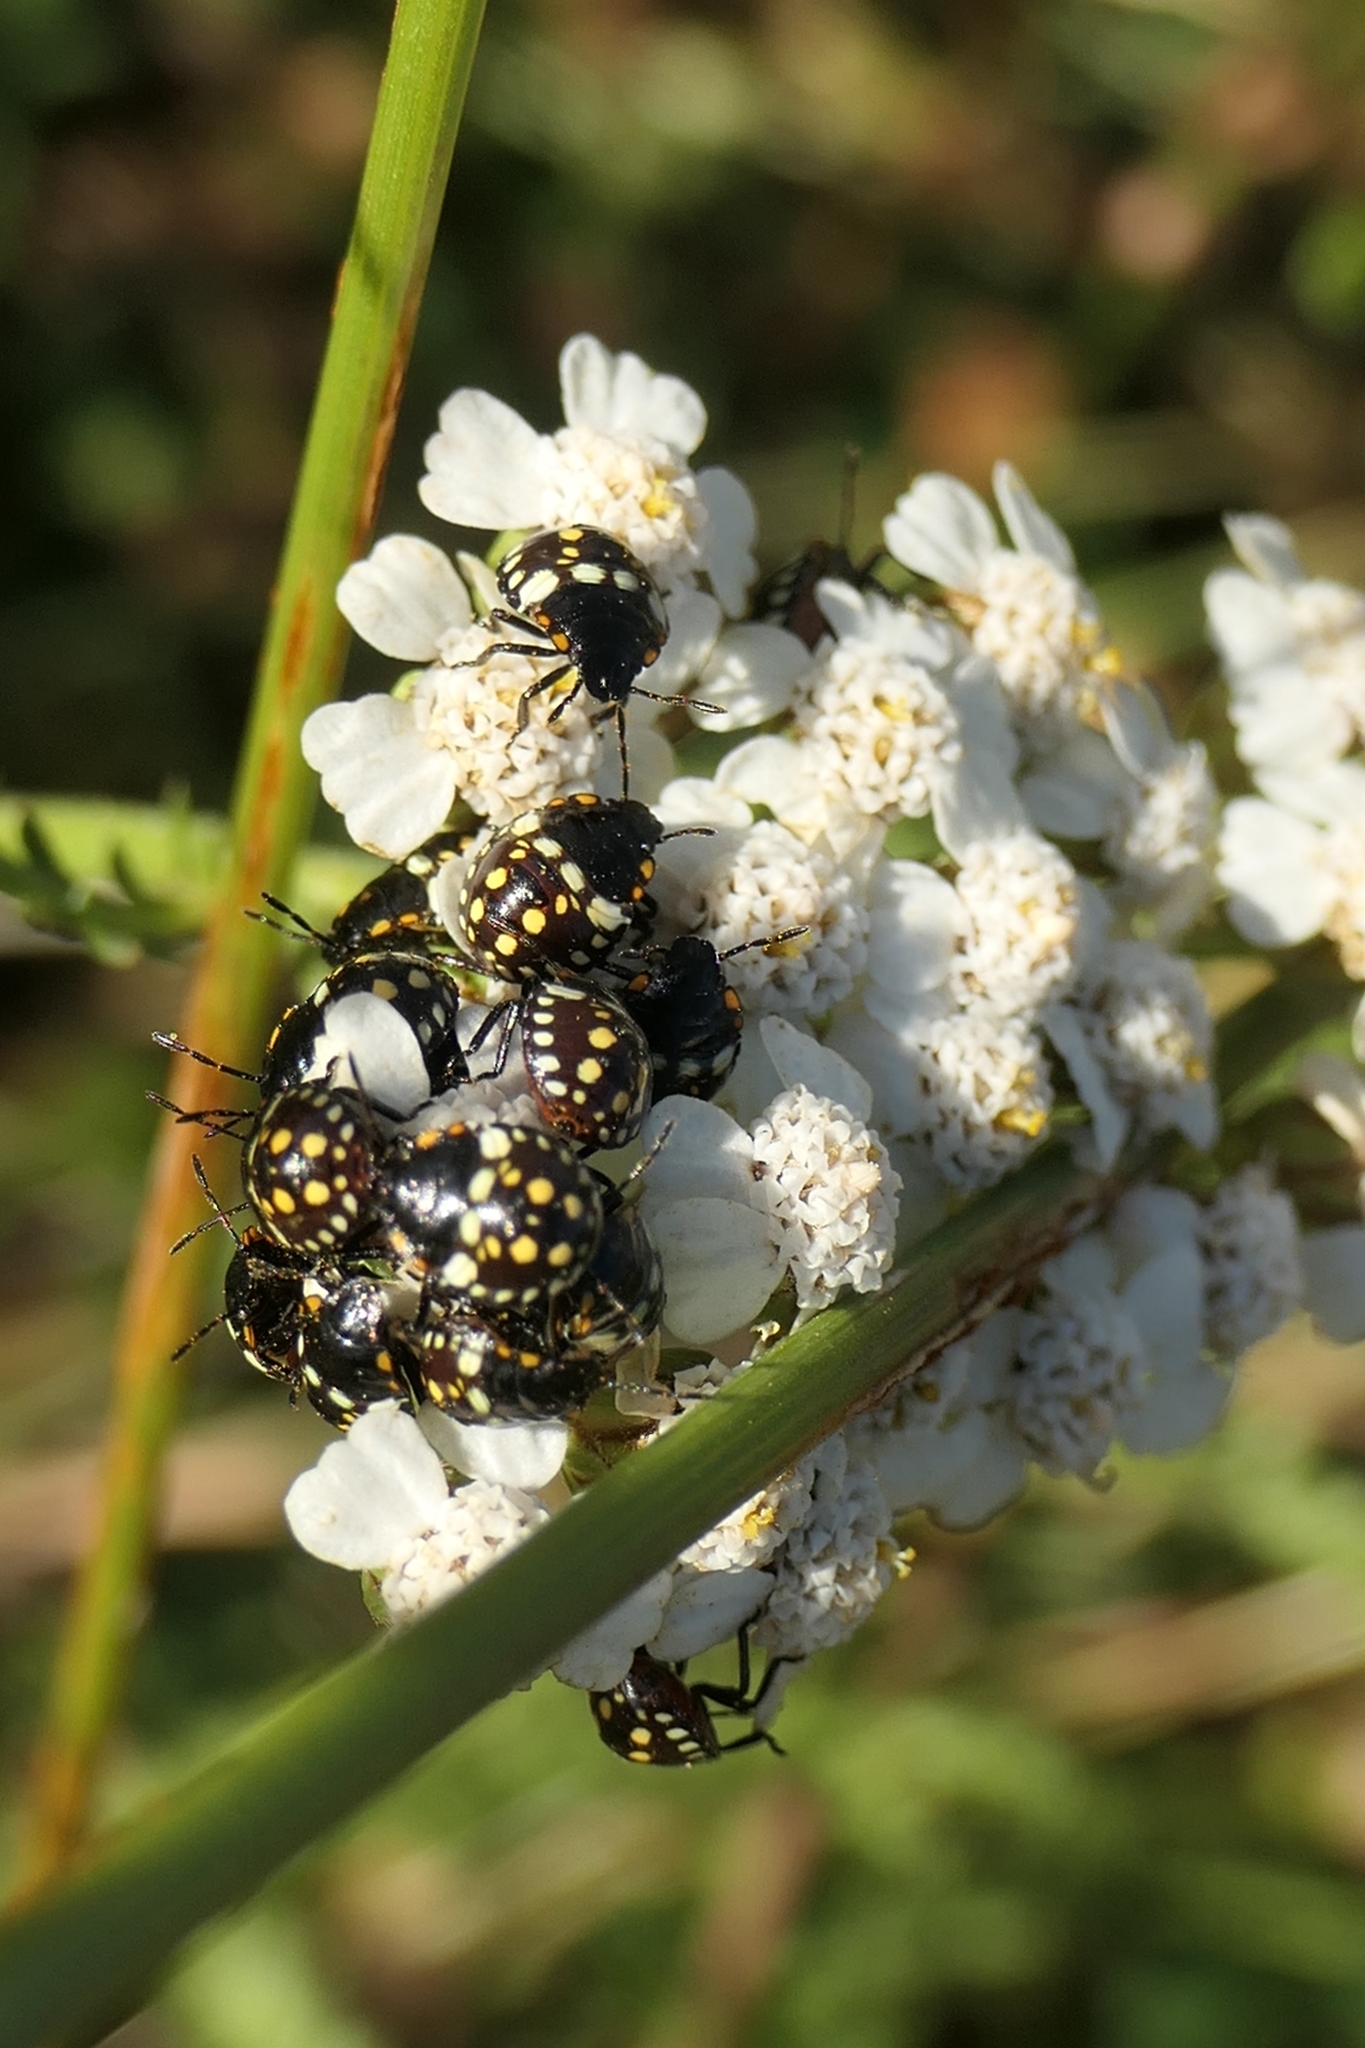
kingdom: Animalia
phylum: Arthropoda
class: Insecta
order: Hemiptera
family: Pentatomidae
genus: Nezara
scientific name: Nezara viridula
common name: Southern green stink bug
